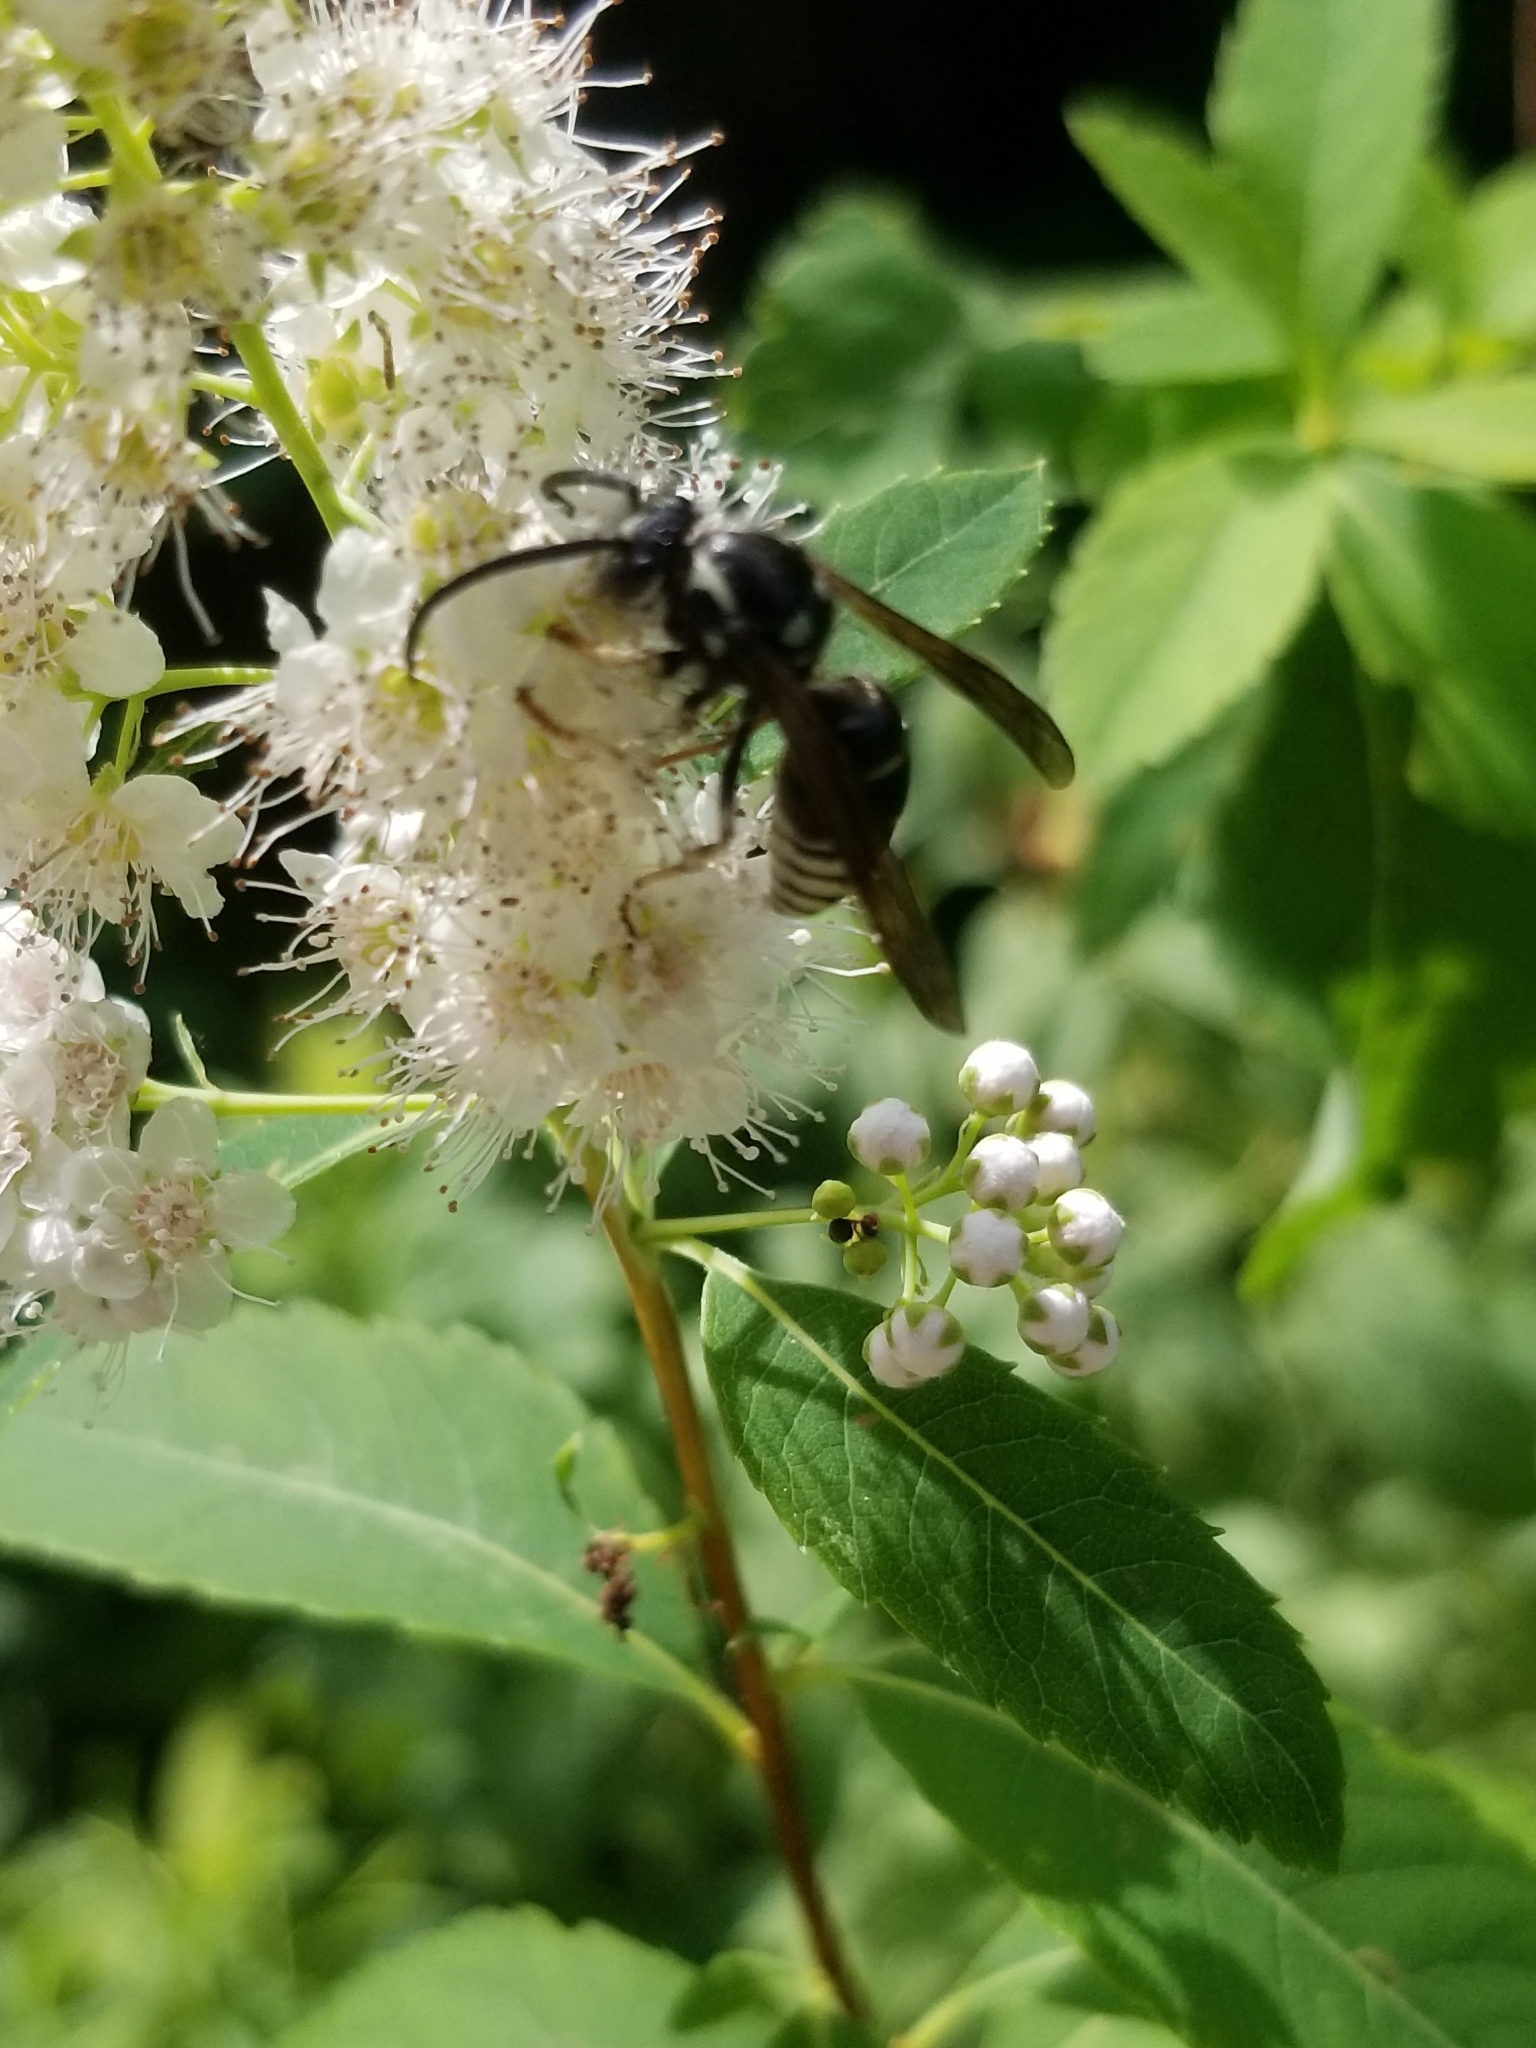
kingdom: Animalia
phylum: Arthropoda
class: Insecta
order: Hymenoptera
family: Vespidae
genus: Vespula
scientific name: Vespula consobrina
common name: Blackjacket
